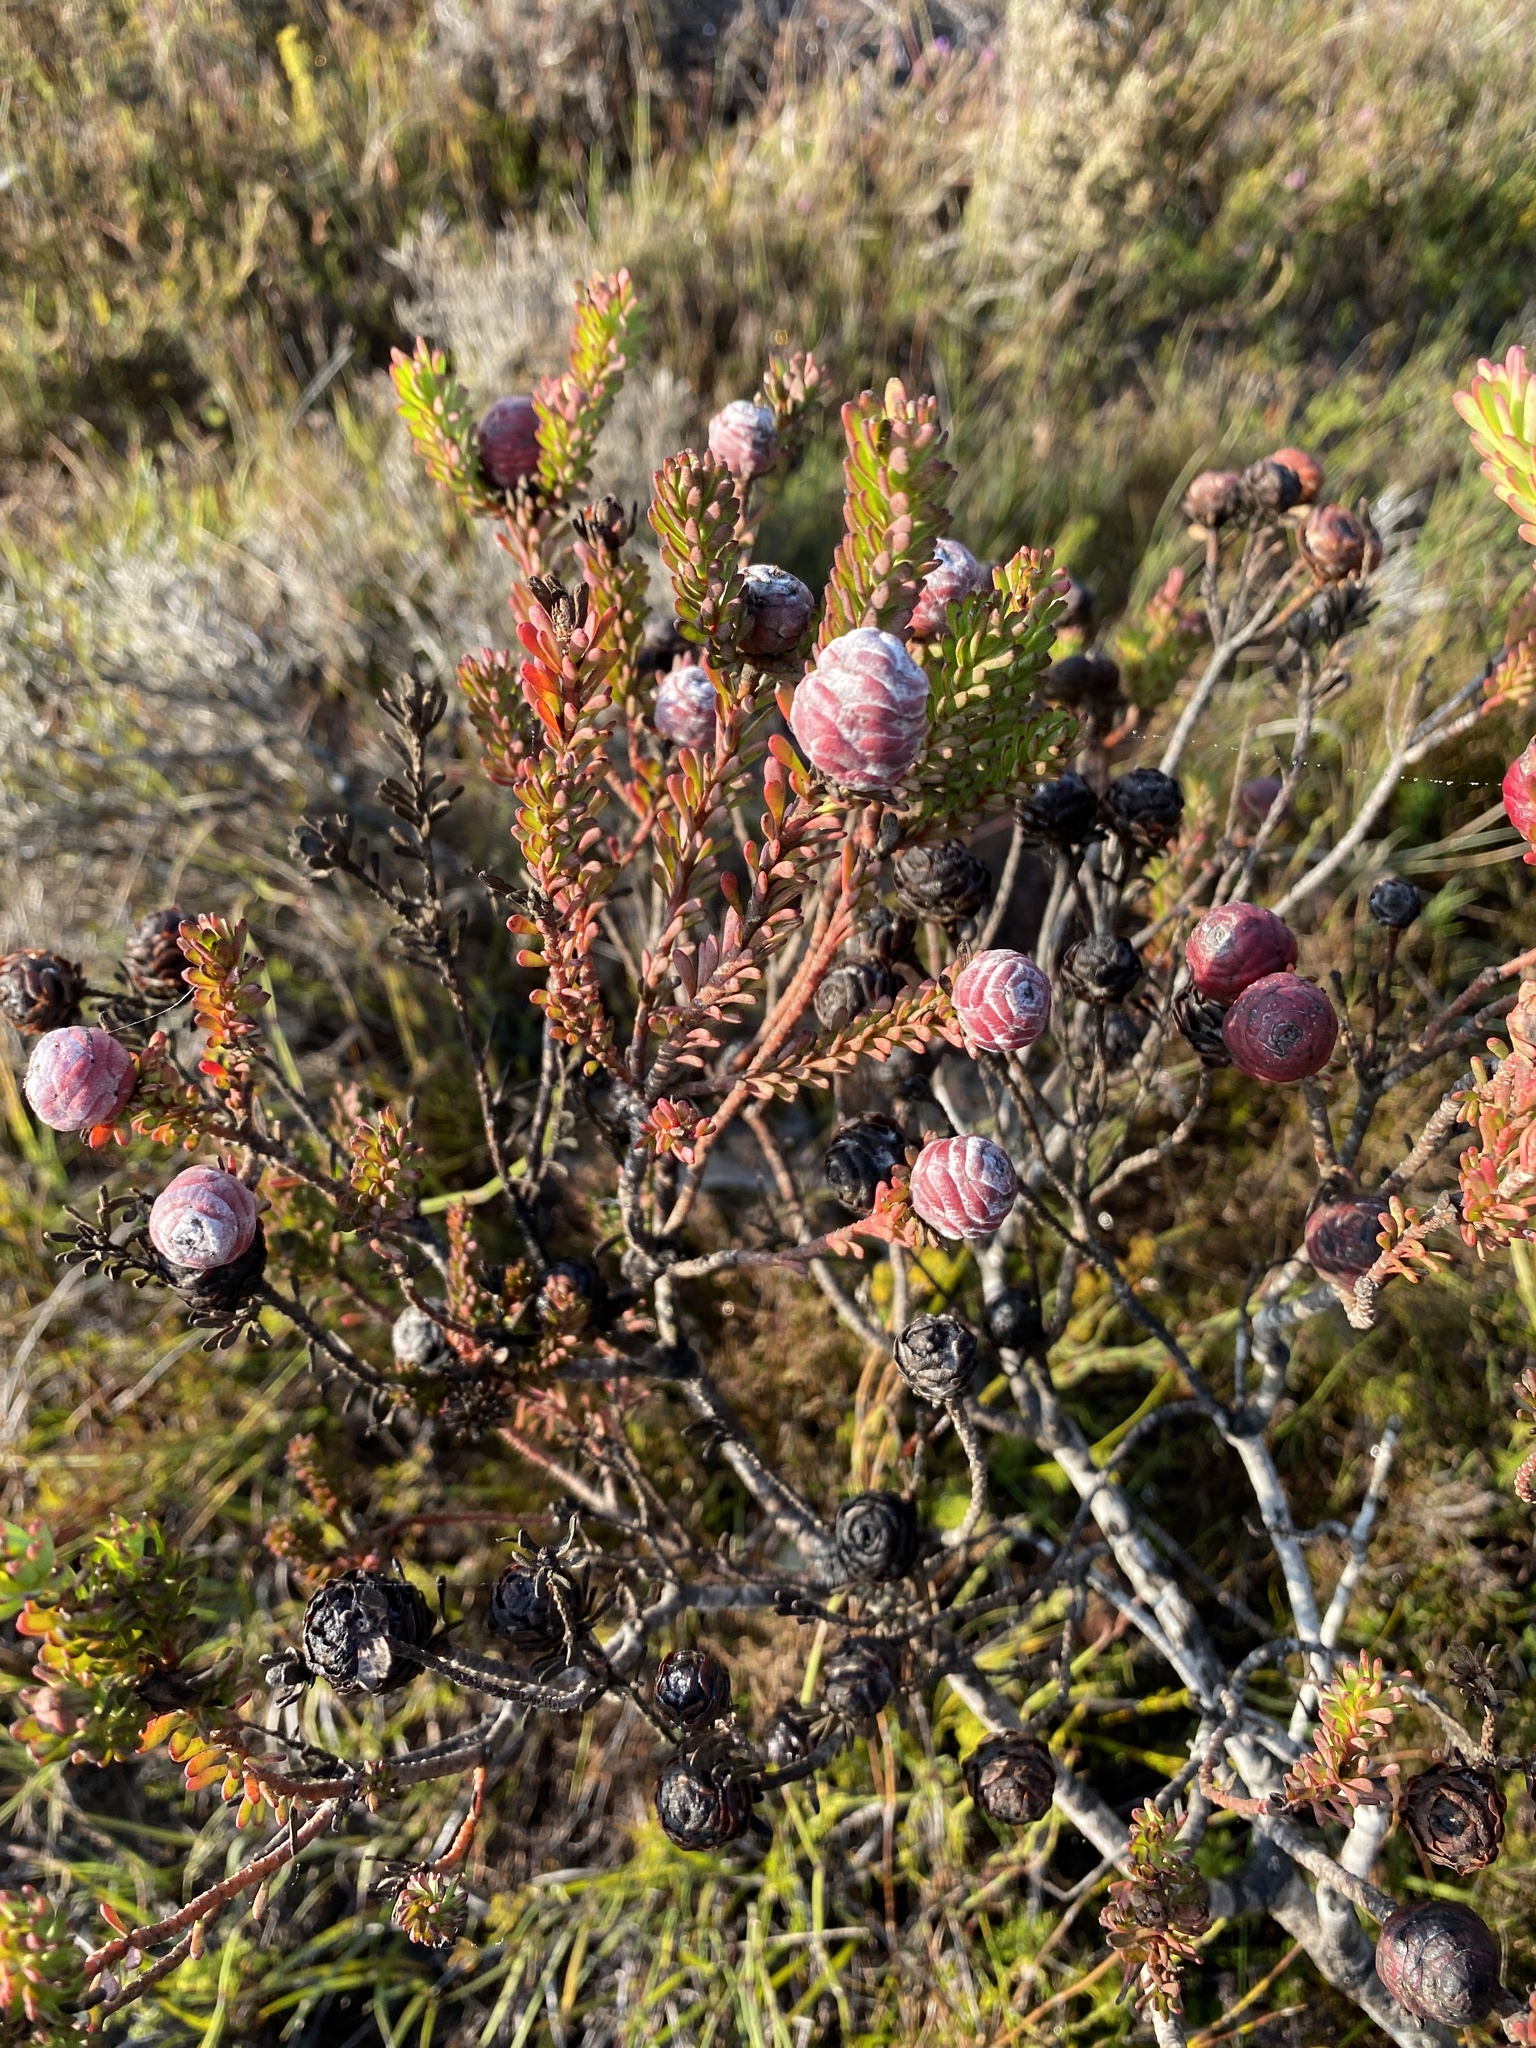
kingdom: Plantae
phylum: Tracheophyta
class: Magnoliopsida
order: Proteales
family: Proteaceae
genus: Leucadendron
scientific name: Leucadendron linifolium
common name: Line-leaf conebush
